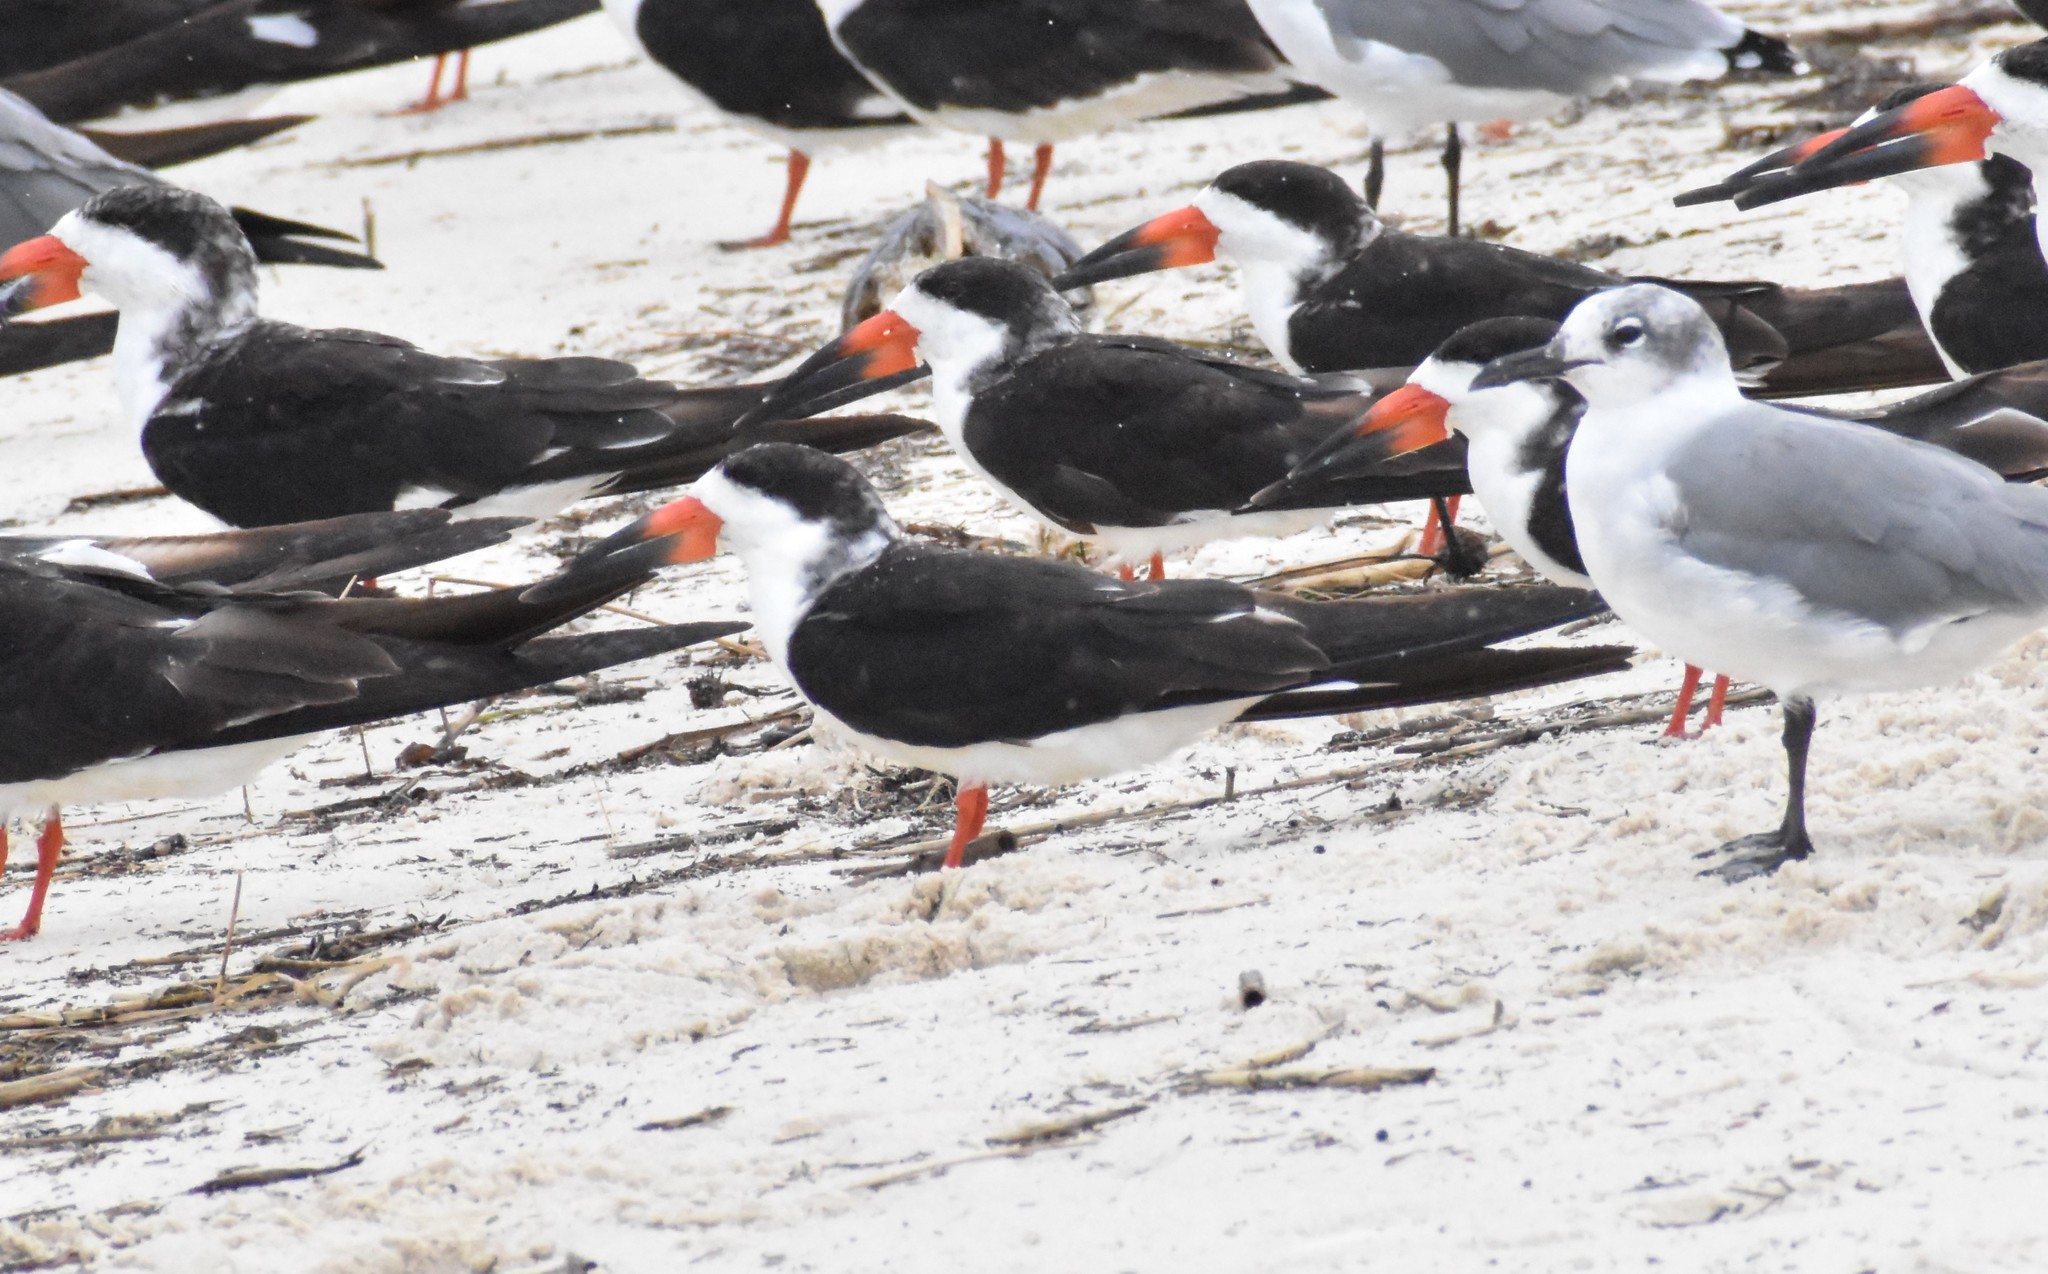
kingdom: Animalia
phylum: Chordata
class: Aves
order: Charadriiformes
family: Laridae
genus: Rynchops
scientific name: Rynchops niger
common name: Black skimmer
